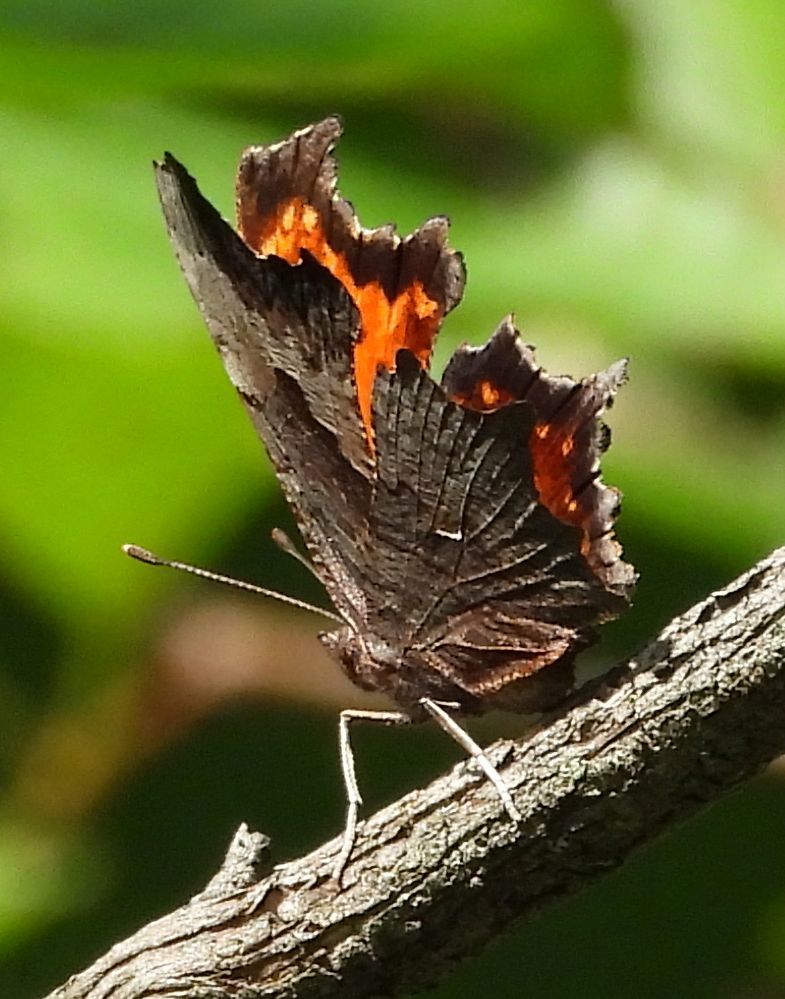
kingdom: Animalia
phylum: Arthropoda
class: Insecta
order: Lepidoptera
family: Nymphalidae
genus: Polygonia
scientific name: Polygonia progne
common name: Gray comma
